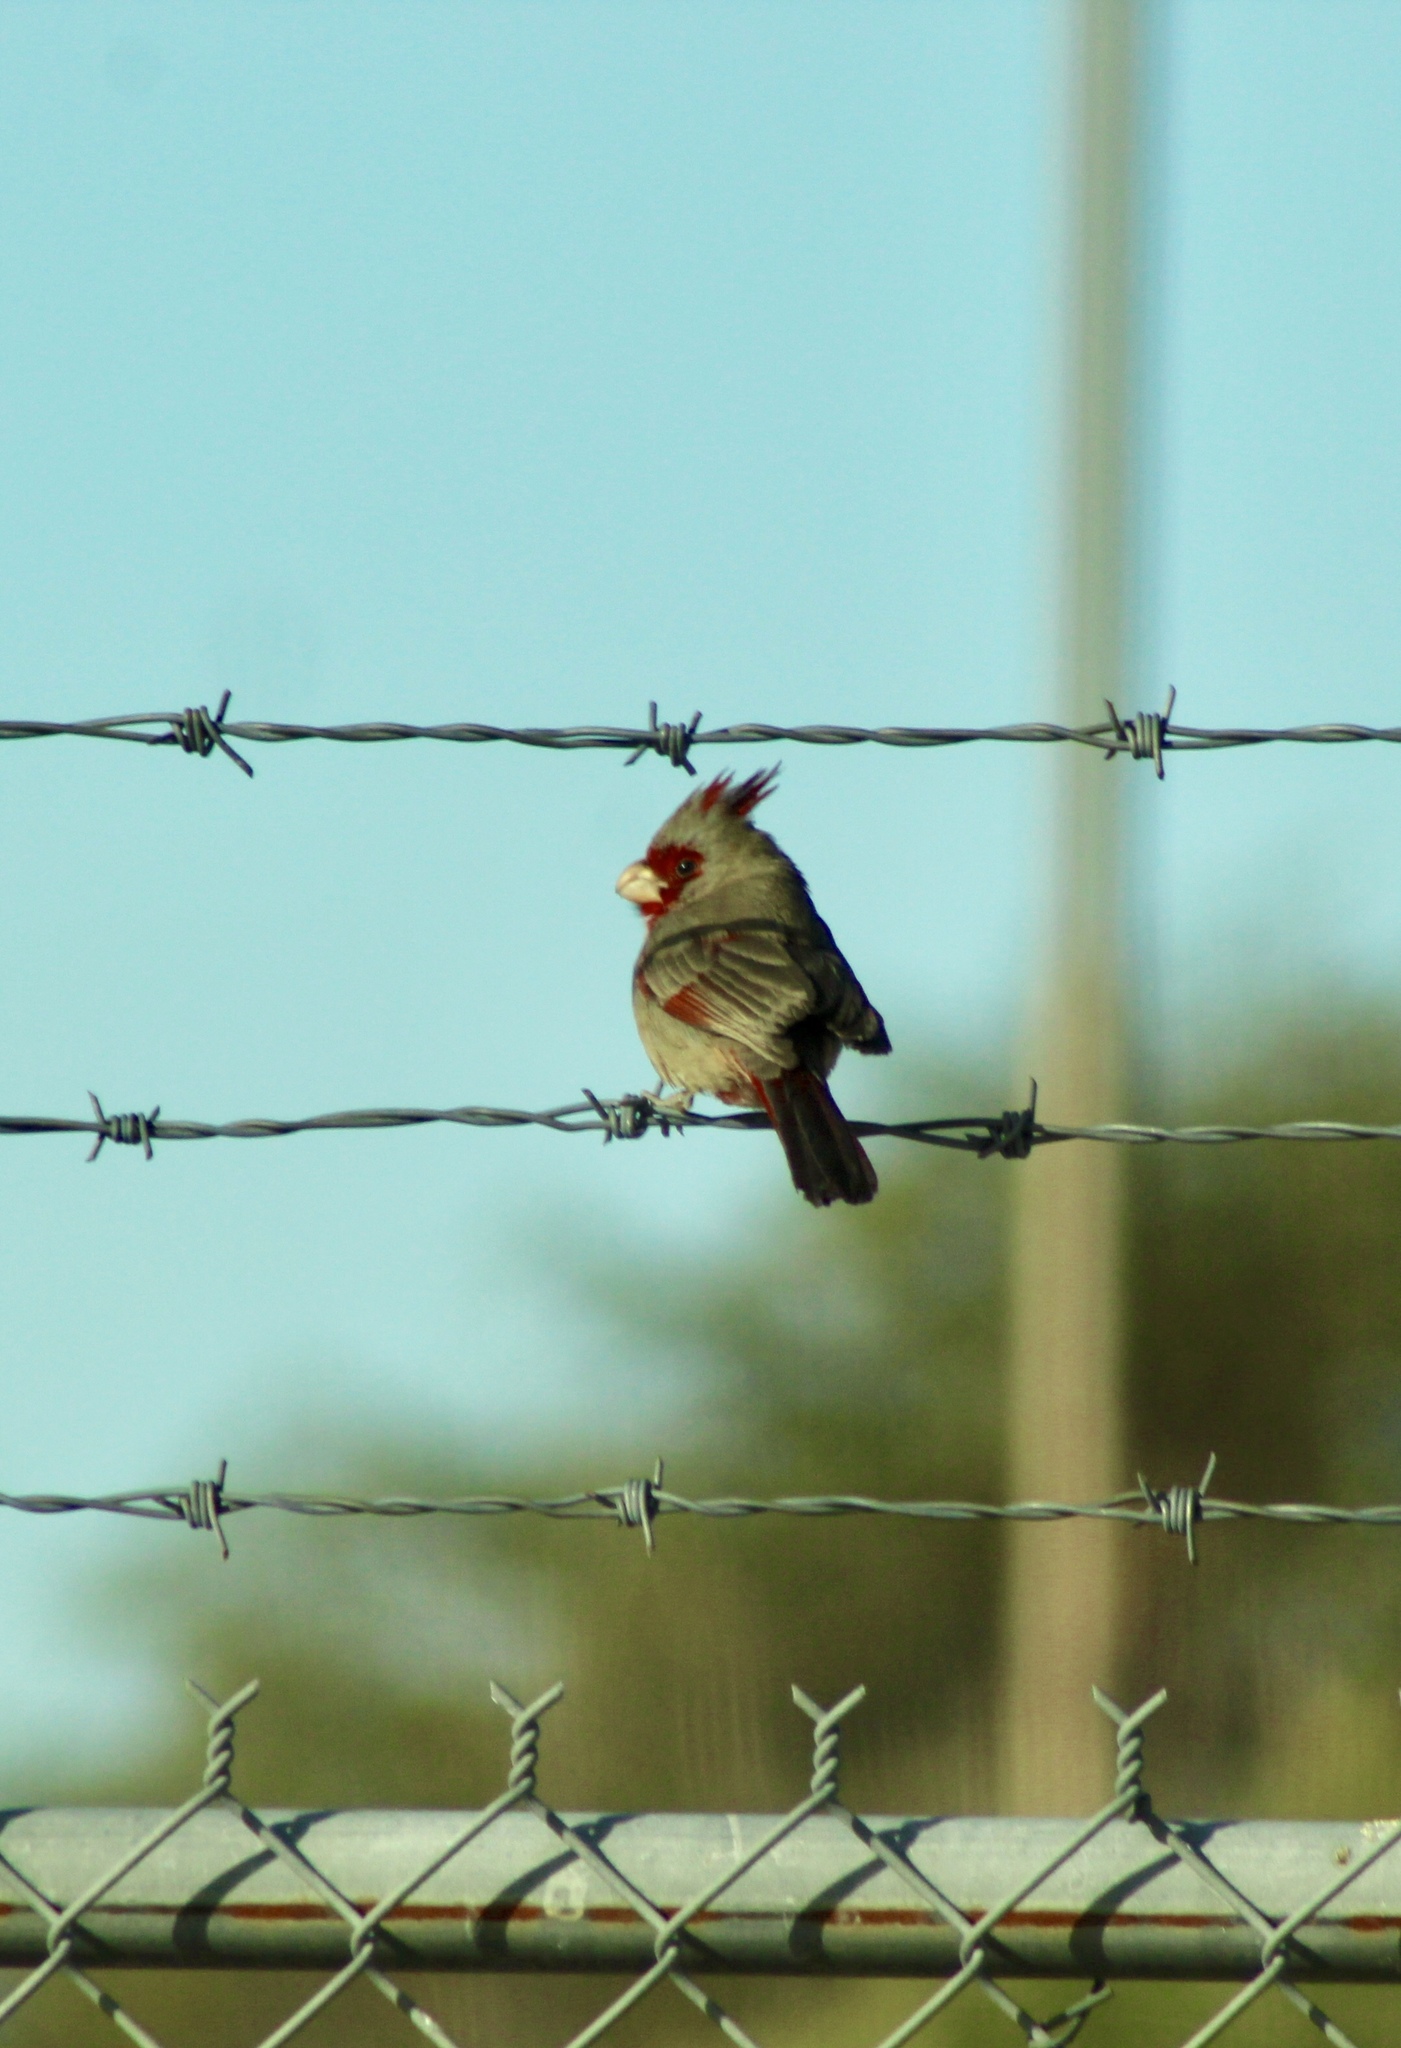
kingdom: Animalia
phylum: Chordata
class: Aves
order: Passeriformes
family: Cardinalidae
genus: Cardinalis
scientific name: Cardinalis sinuatus
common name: Pyrrhuloxia
